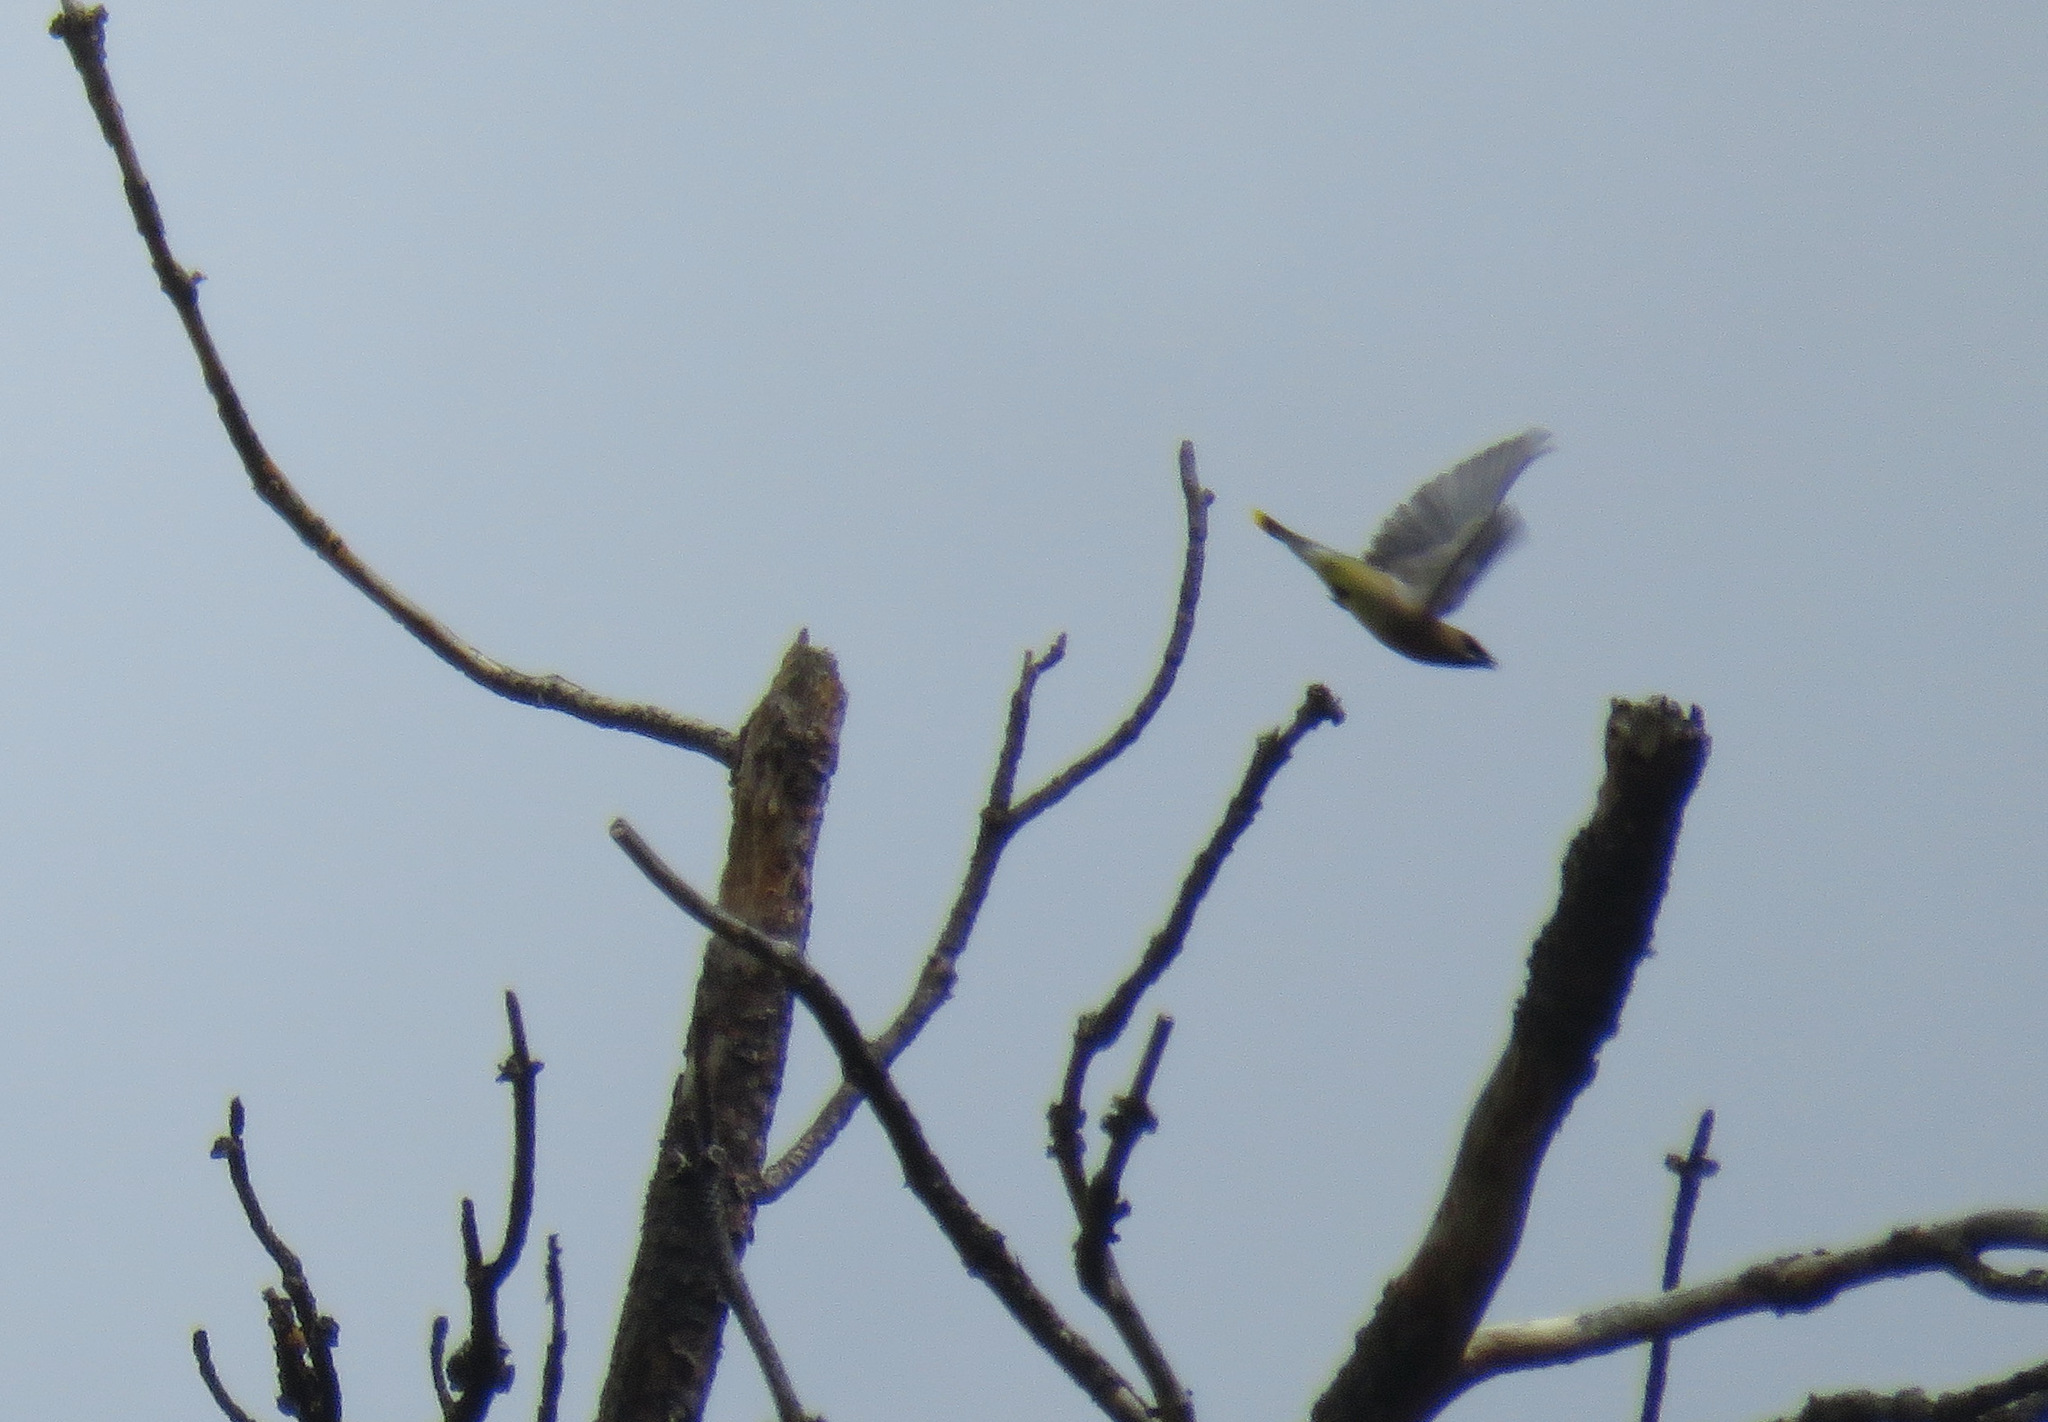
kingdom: Animalia
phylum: Chordata
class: Aves
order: Passeriformes
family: Bombycillidae
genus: Bombycilla
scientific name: Bombycilla cedrorum
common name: Cedar waxwing
